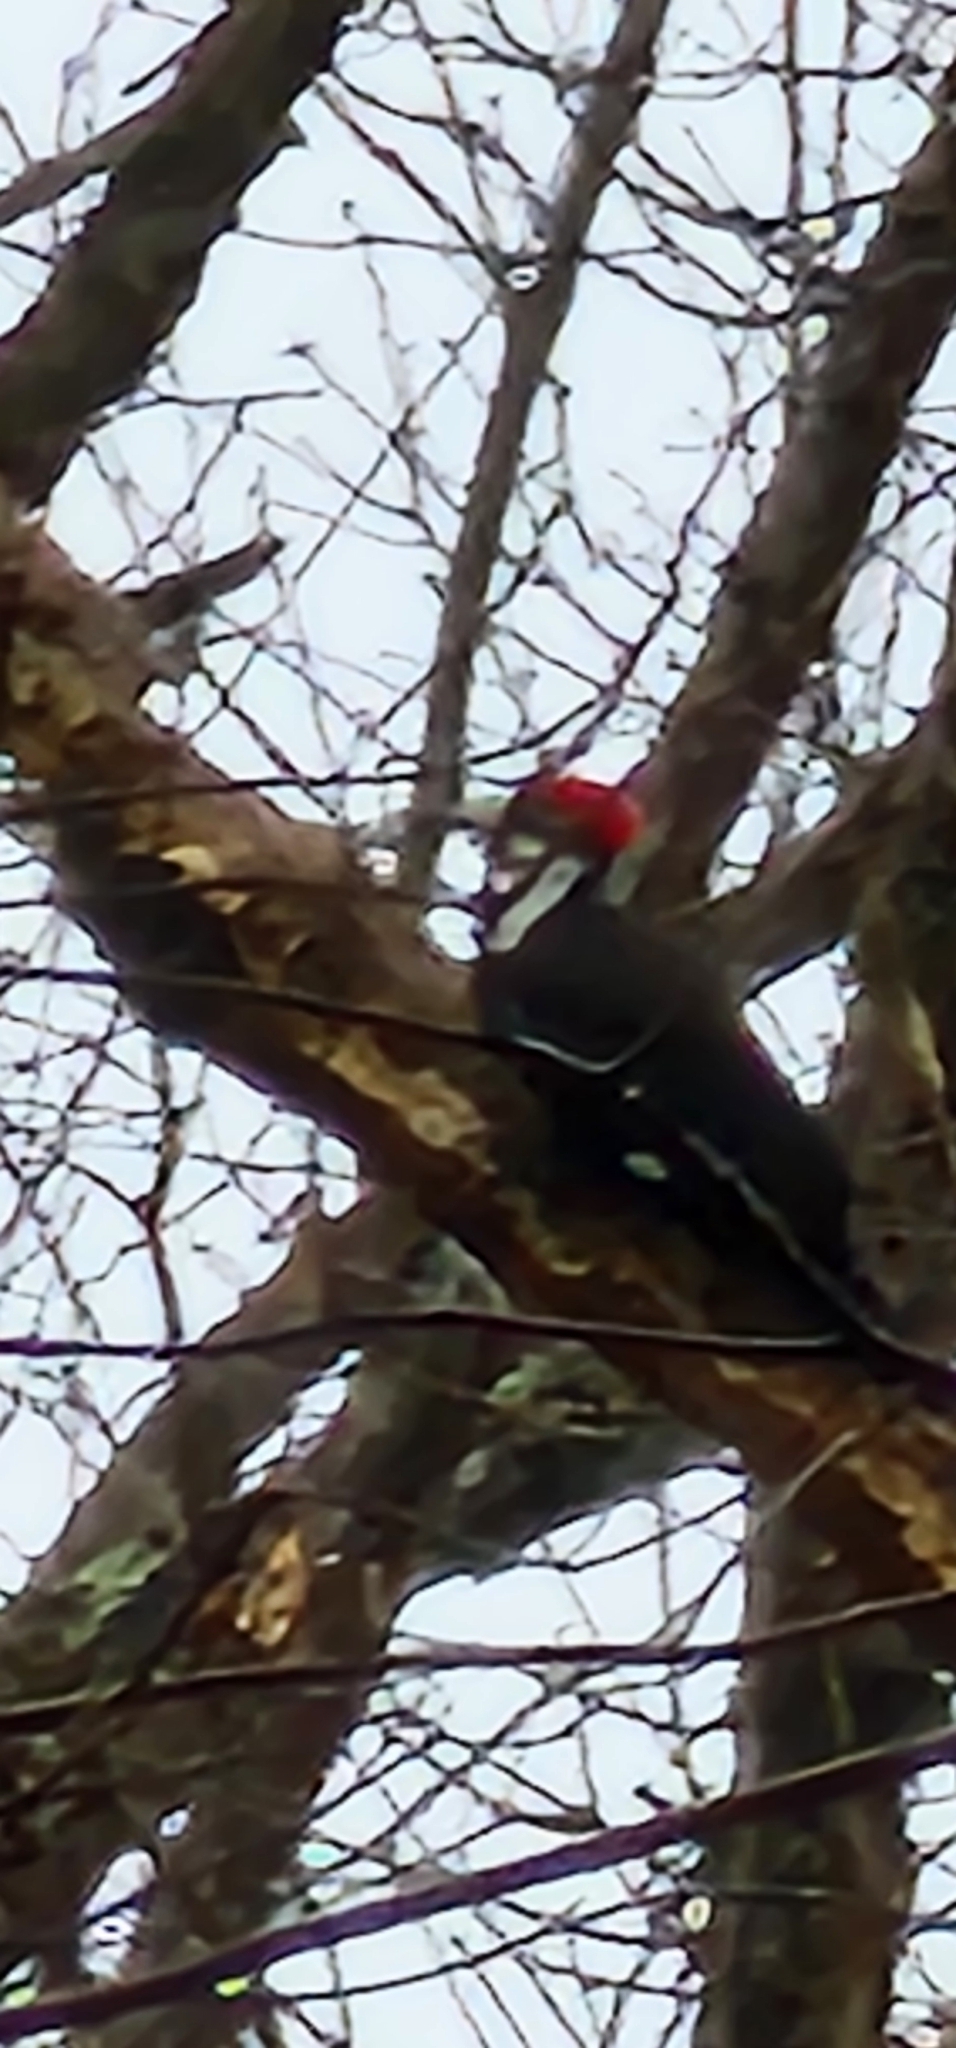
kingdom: Animalia
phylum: Chordata
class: Aves
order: Piciformes
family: Picidae
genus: Dryocopus
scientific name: Dryocopus pileatus
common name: Pileated woodpecker
